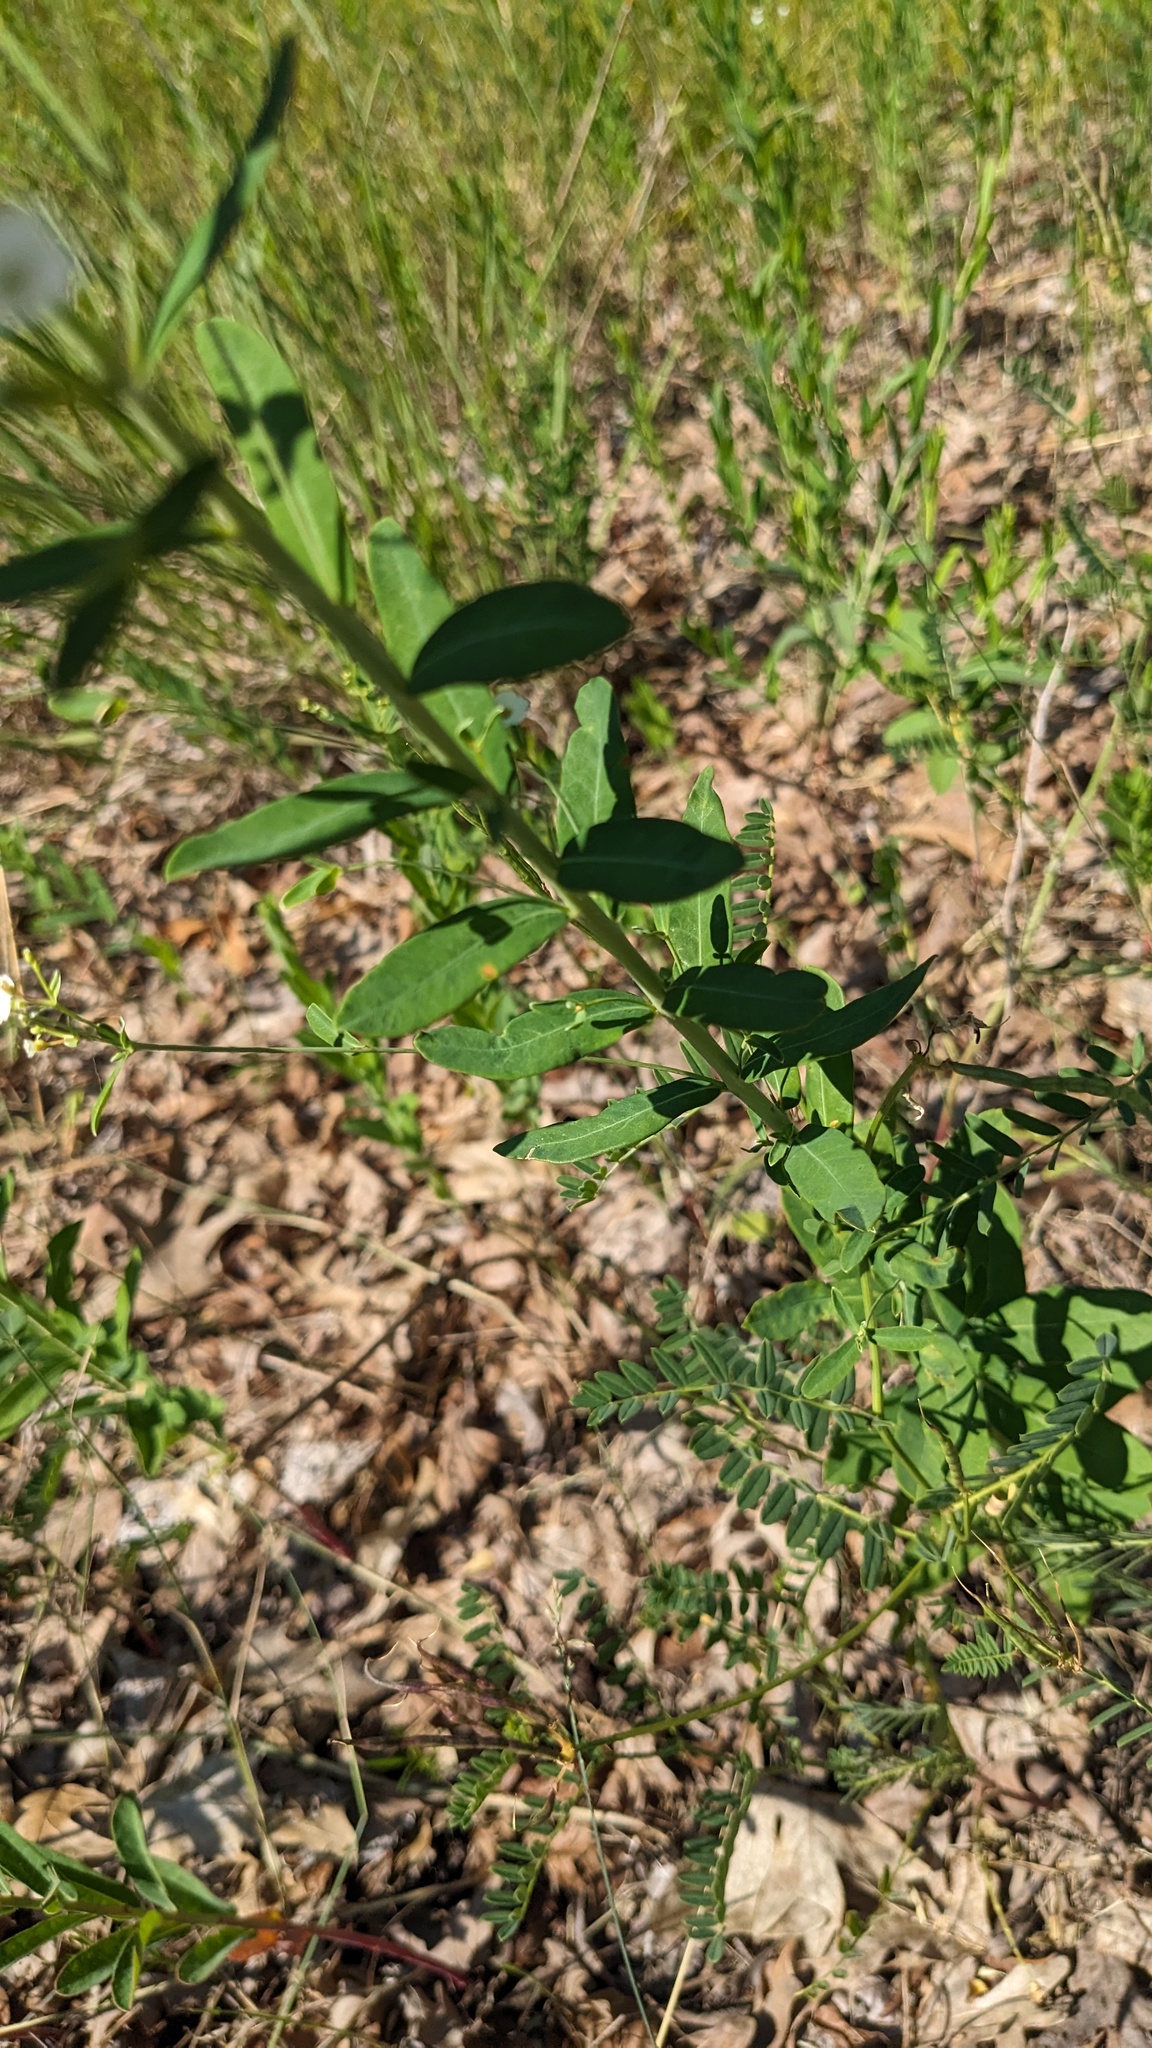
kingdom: Plantae
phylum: Tracheophyta
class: Magnoliopsida
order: Malpighiales
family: Euphorbiaceae
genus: Euphorbia
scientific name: Euphorbia corollata
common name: Flowering spurge
